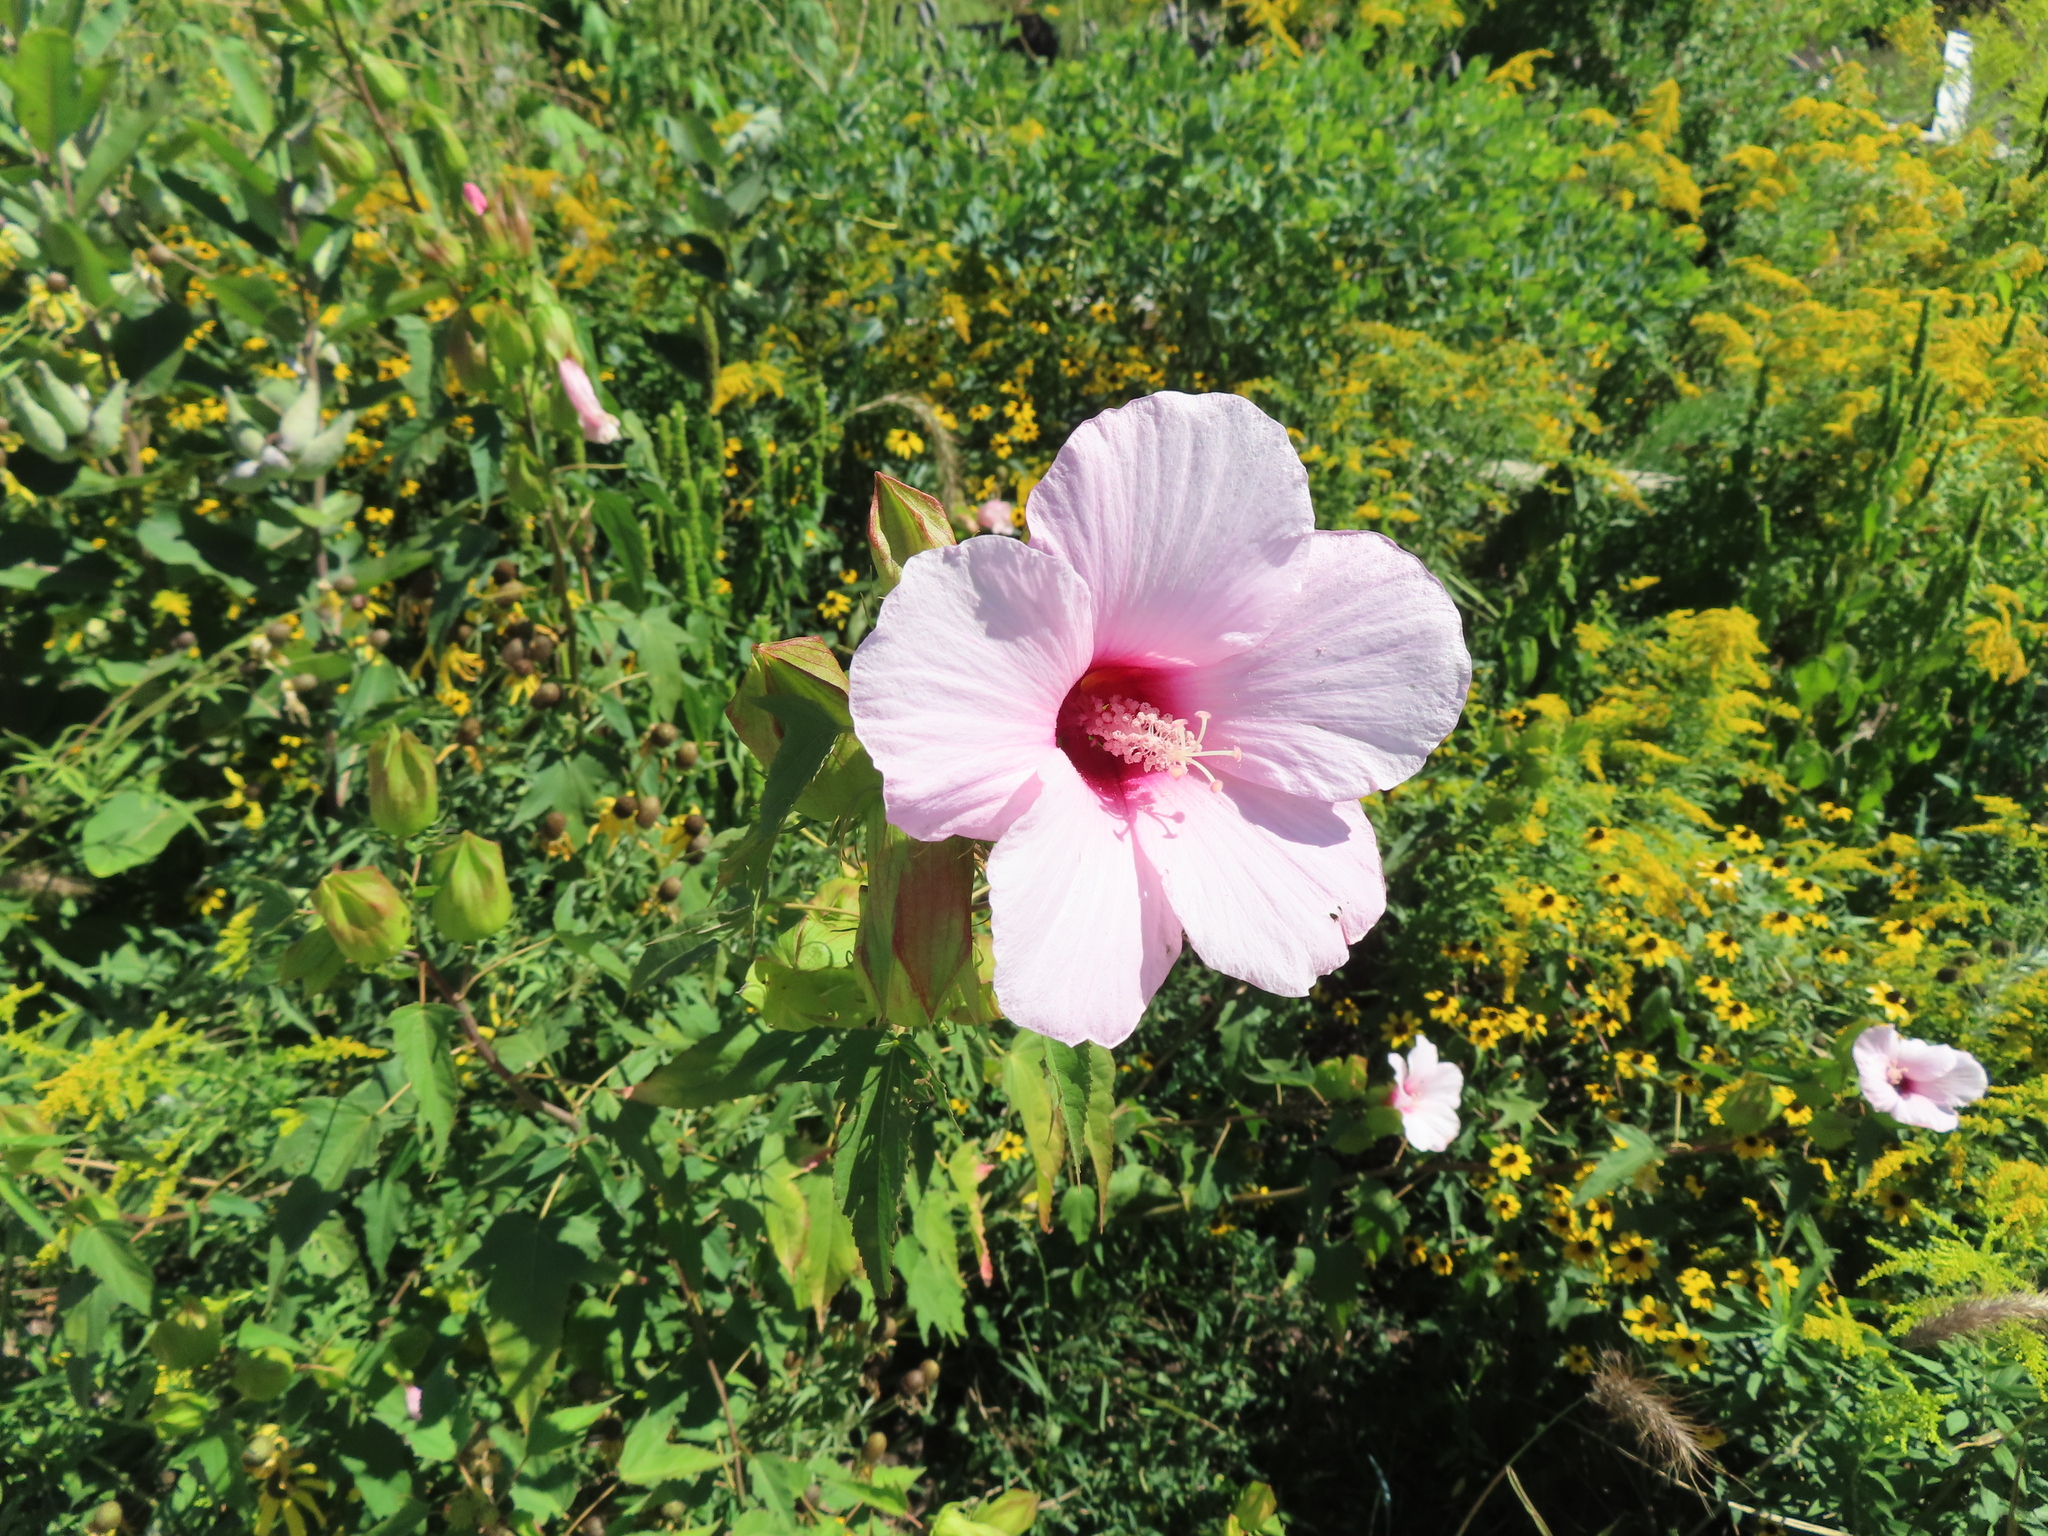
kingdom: Plantae
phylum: Tracheophyta
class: Magnoliopsida
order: Malvales
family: Malvaceae
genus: Hibiscus
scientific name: Hibiscus laevis
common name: Scarlet rose-mallow
